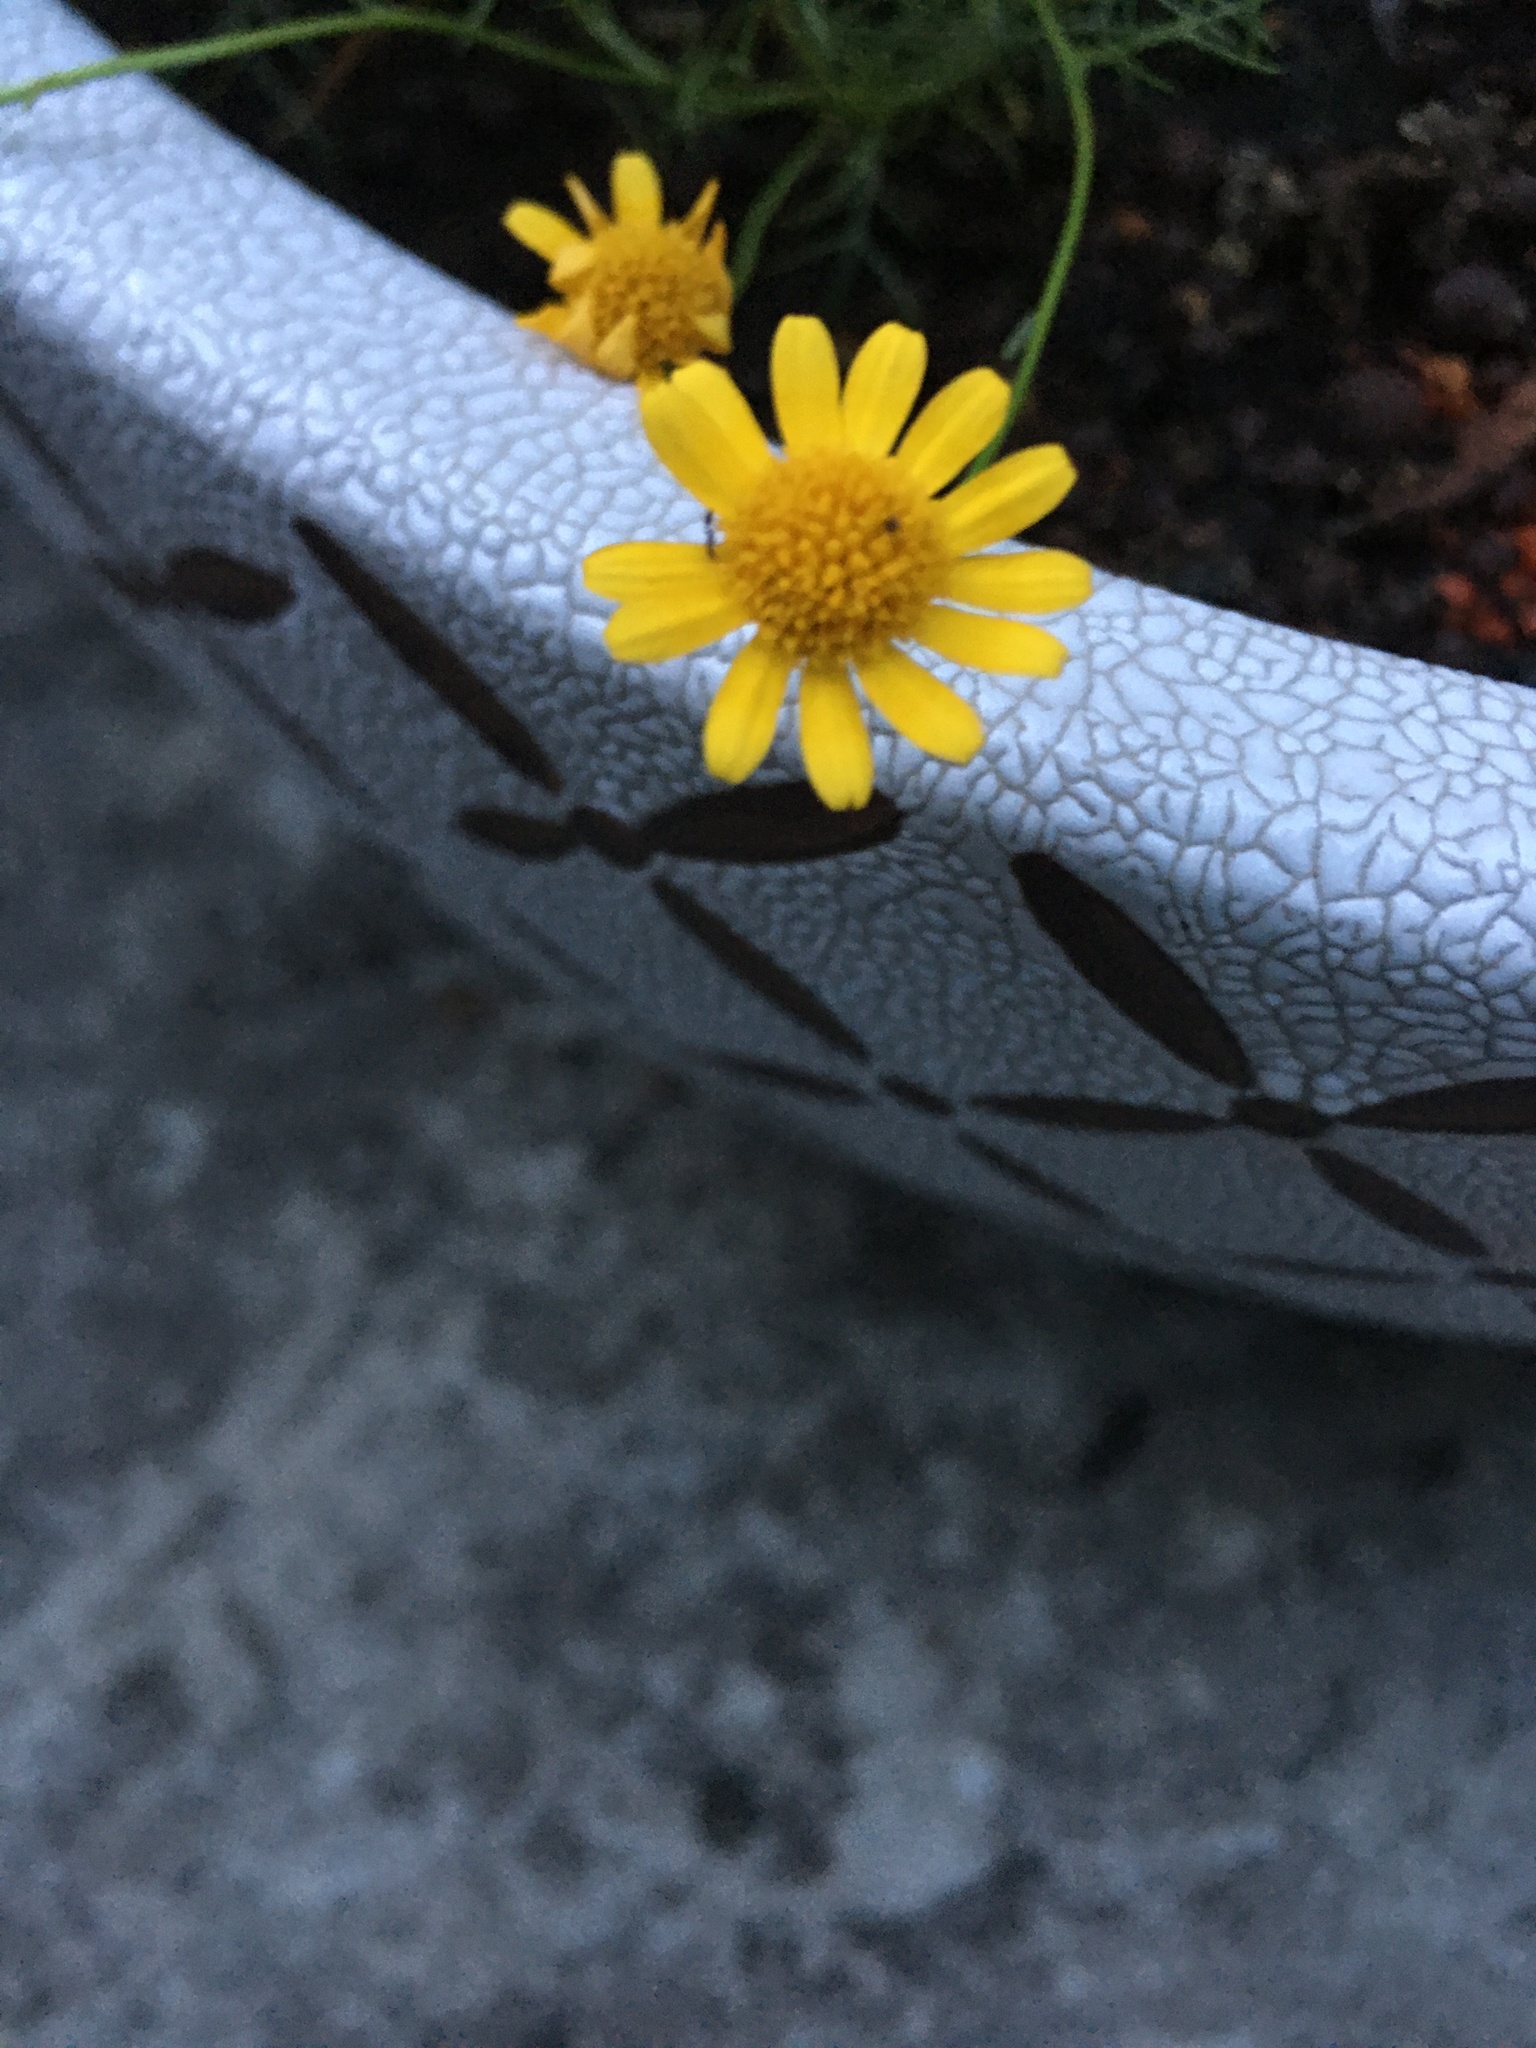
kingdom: Animalia
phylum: Arthropoda
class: Insecta
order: Odonata
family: Libellulidae
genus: Brachythemis
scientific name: Brachythemis contaminata
